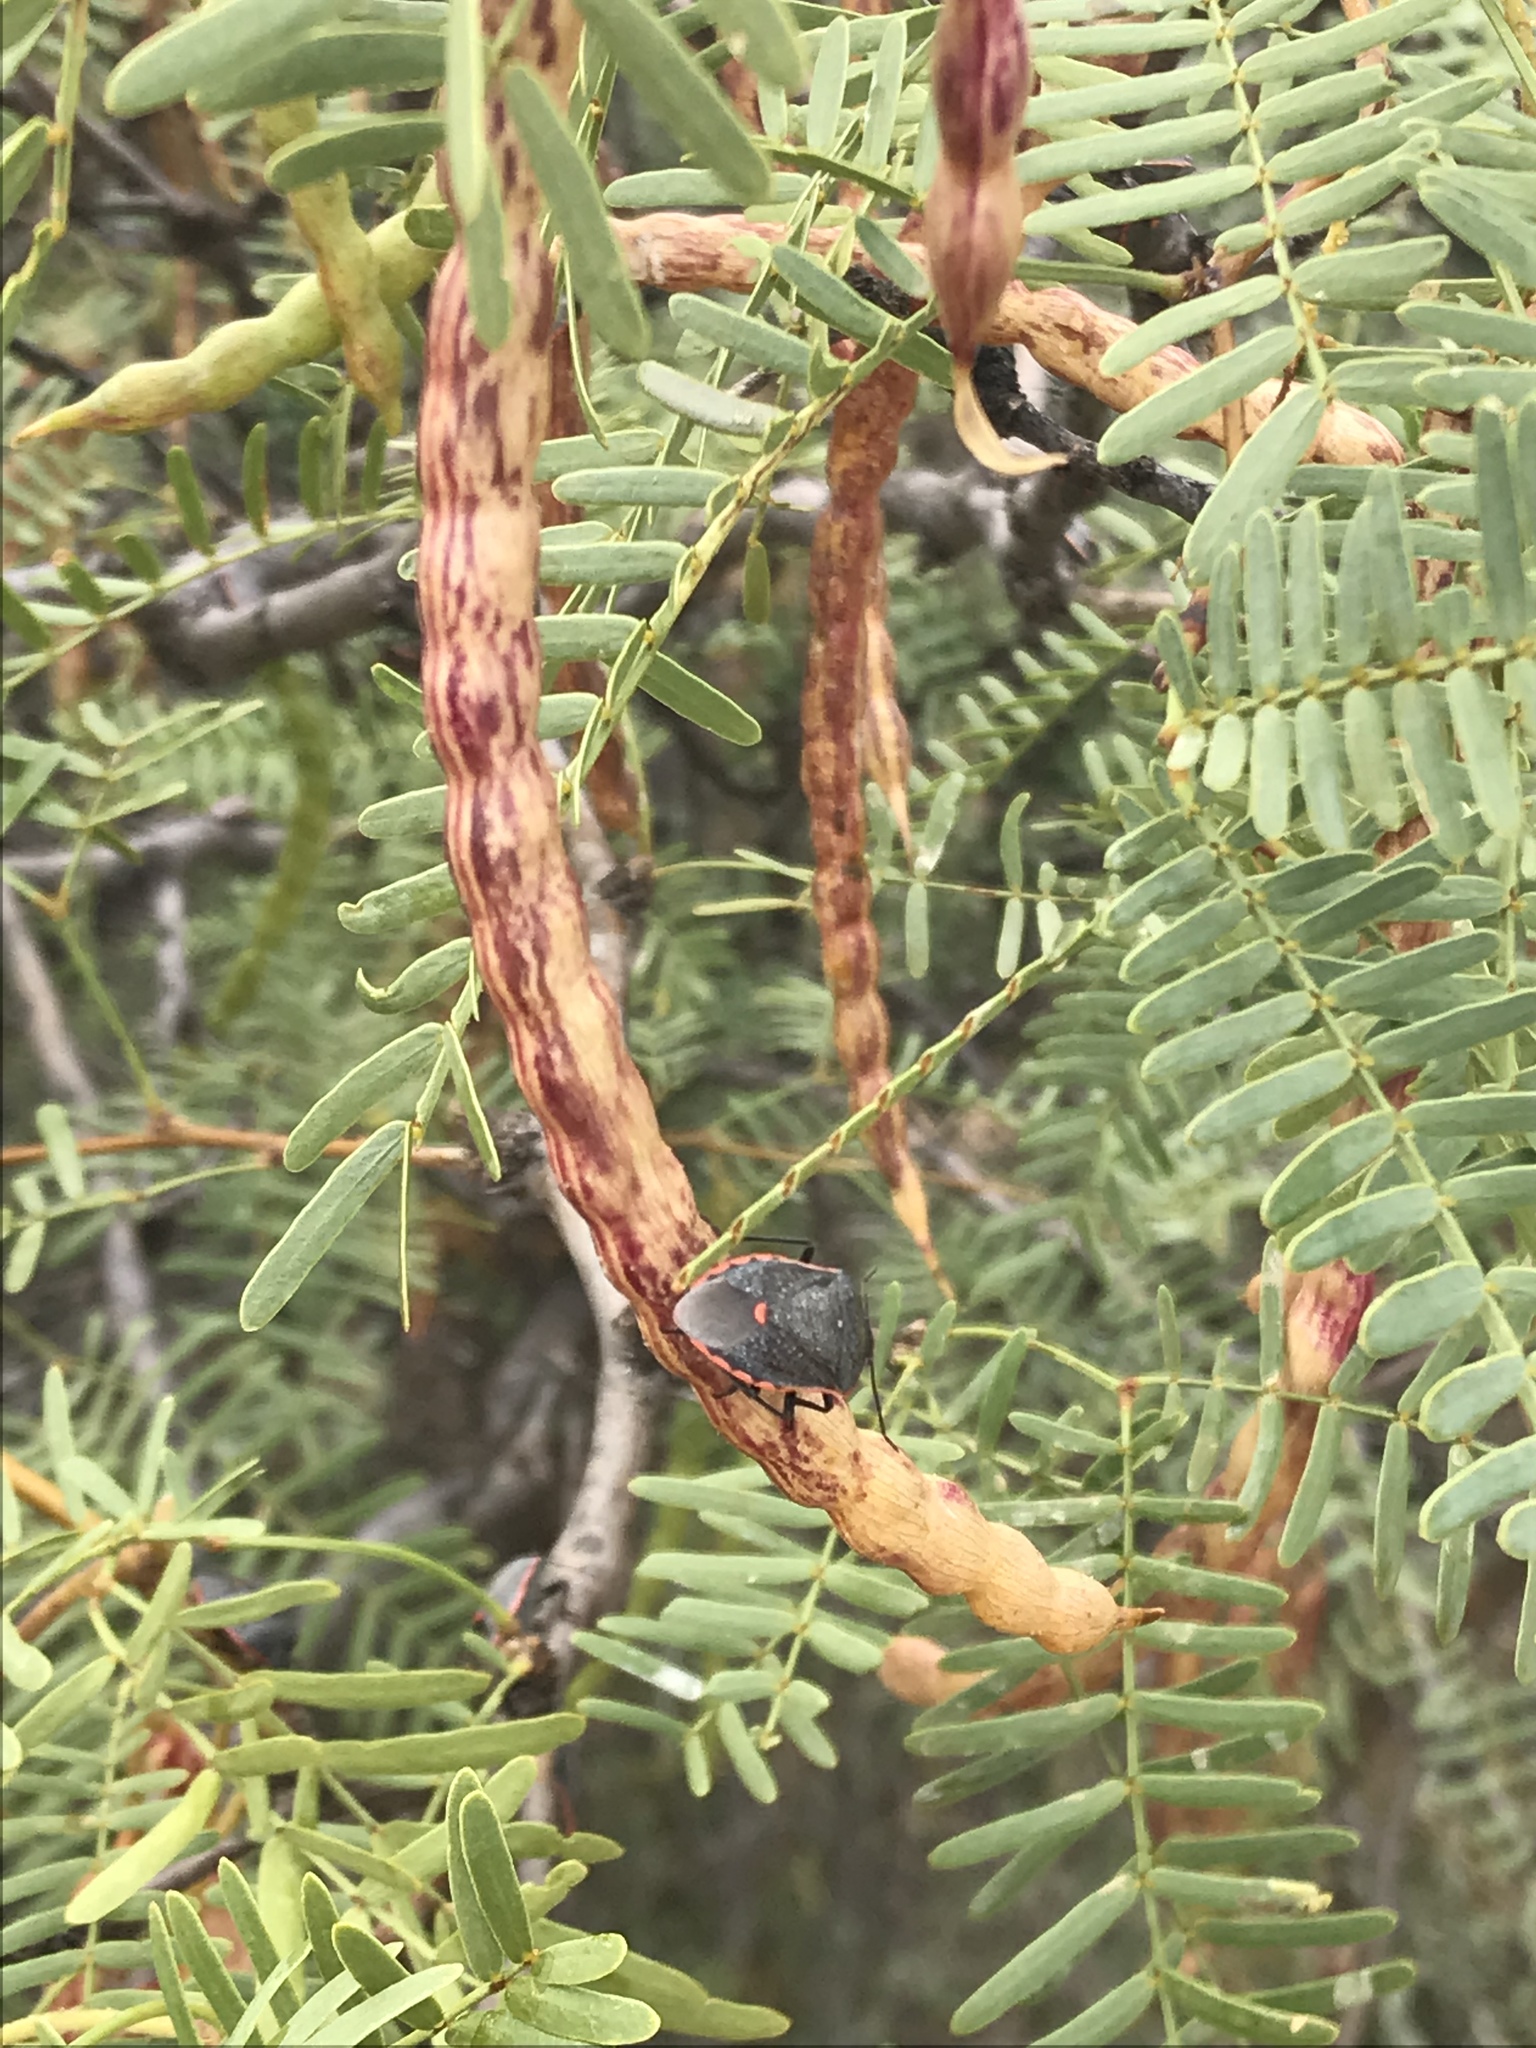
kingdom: Plantae
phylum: Tracheophyta
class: Magnoliopsida
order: Fabales
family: Fabaceae
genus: Prosopis
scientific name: Prosopis glandulosa
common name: Honey mesquite
